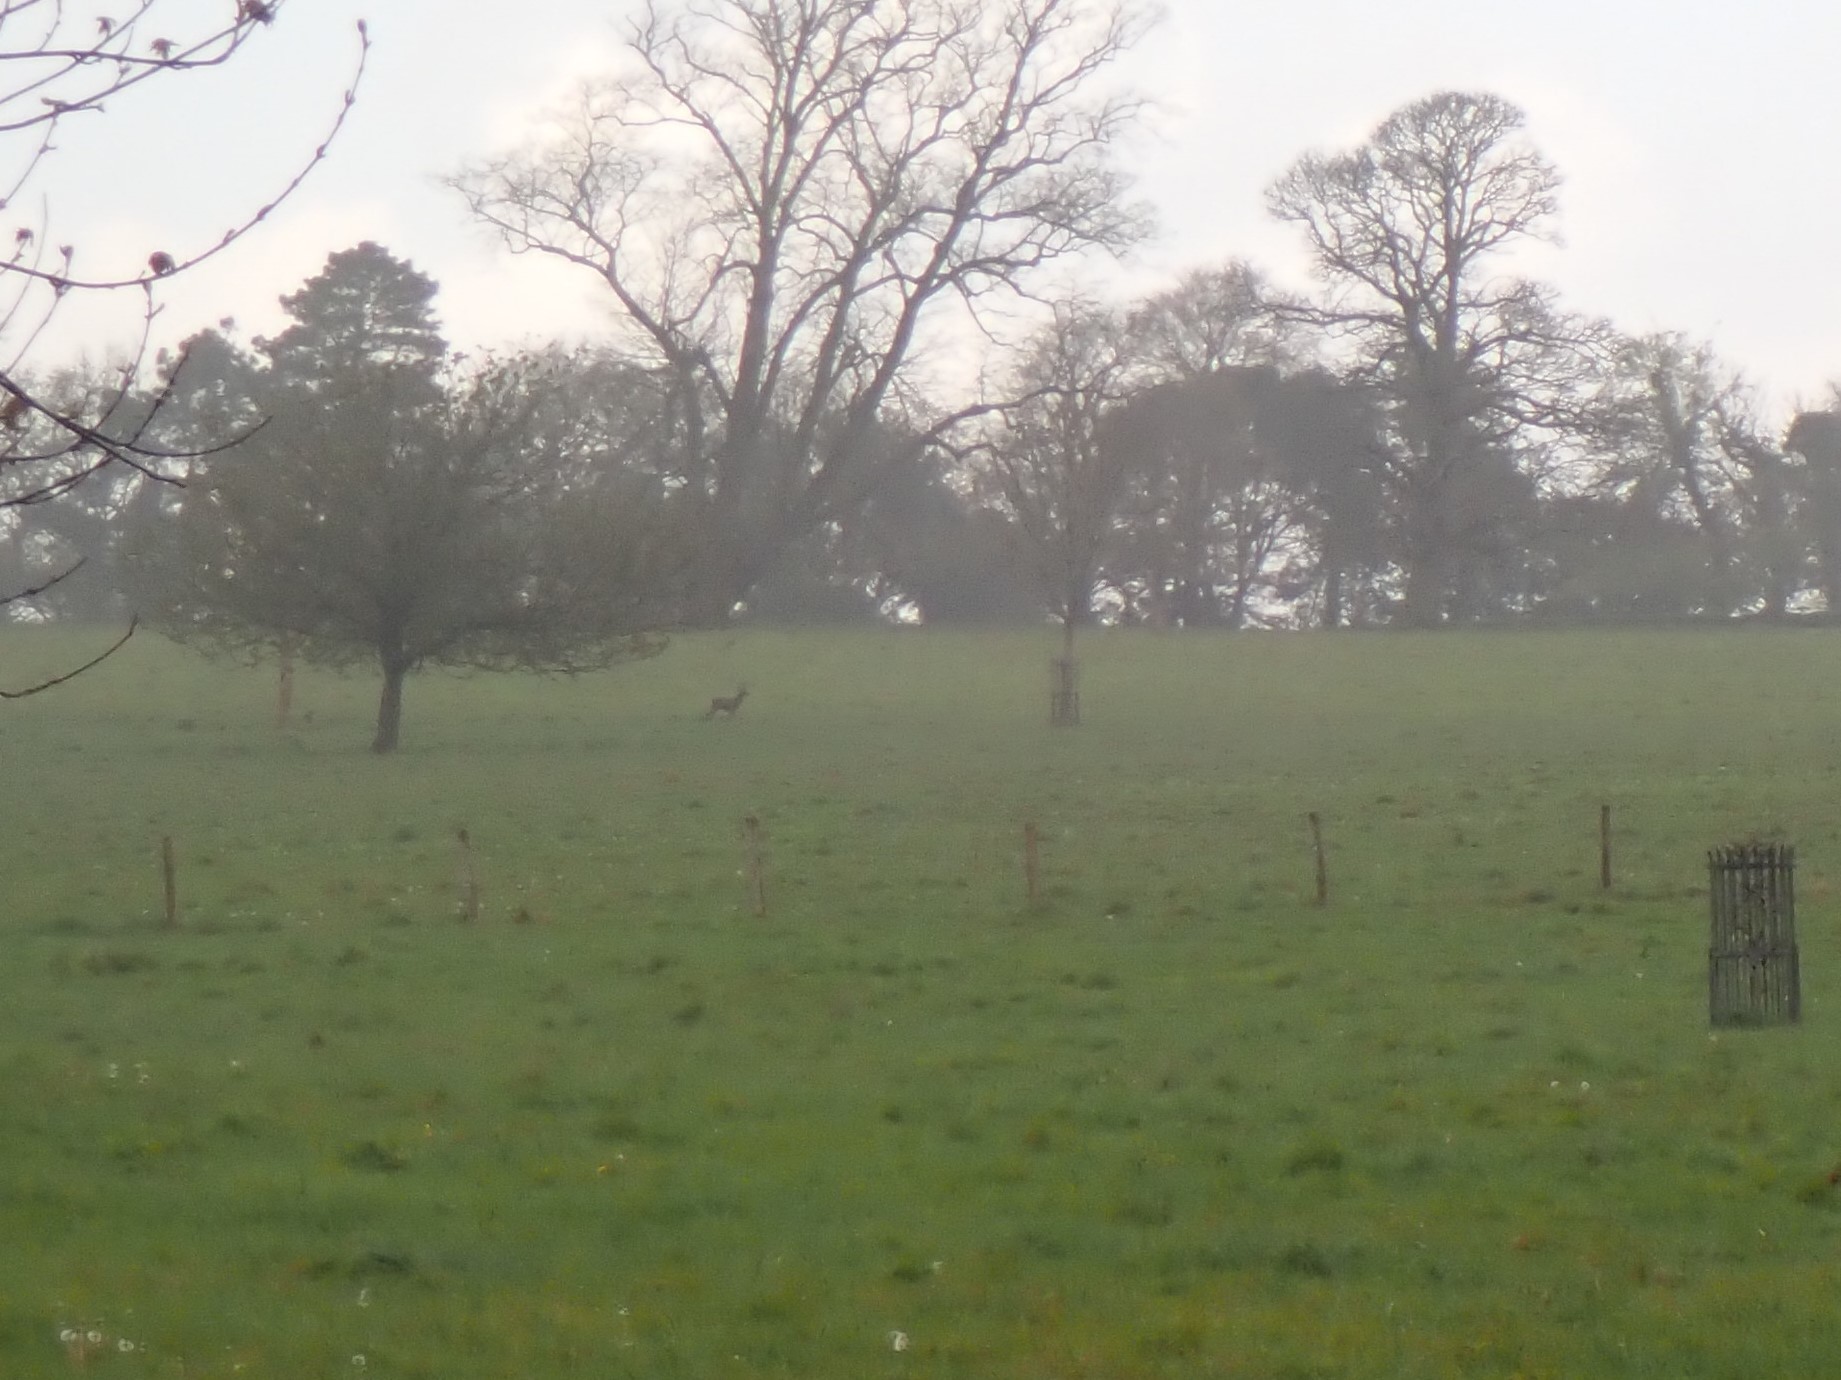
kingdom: Animalia
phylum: Chordata
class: Mammalia
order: Artiodactyla
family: Cervidae
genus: Capreolus
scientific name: Capreolus capreolus
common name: Western roe deer
